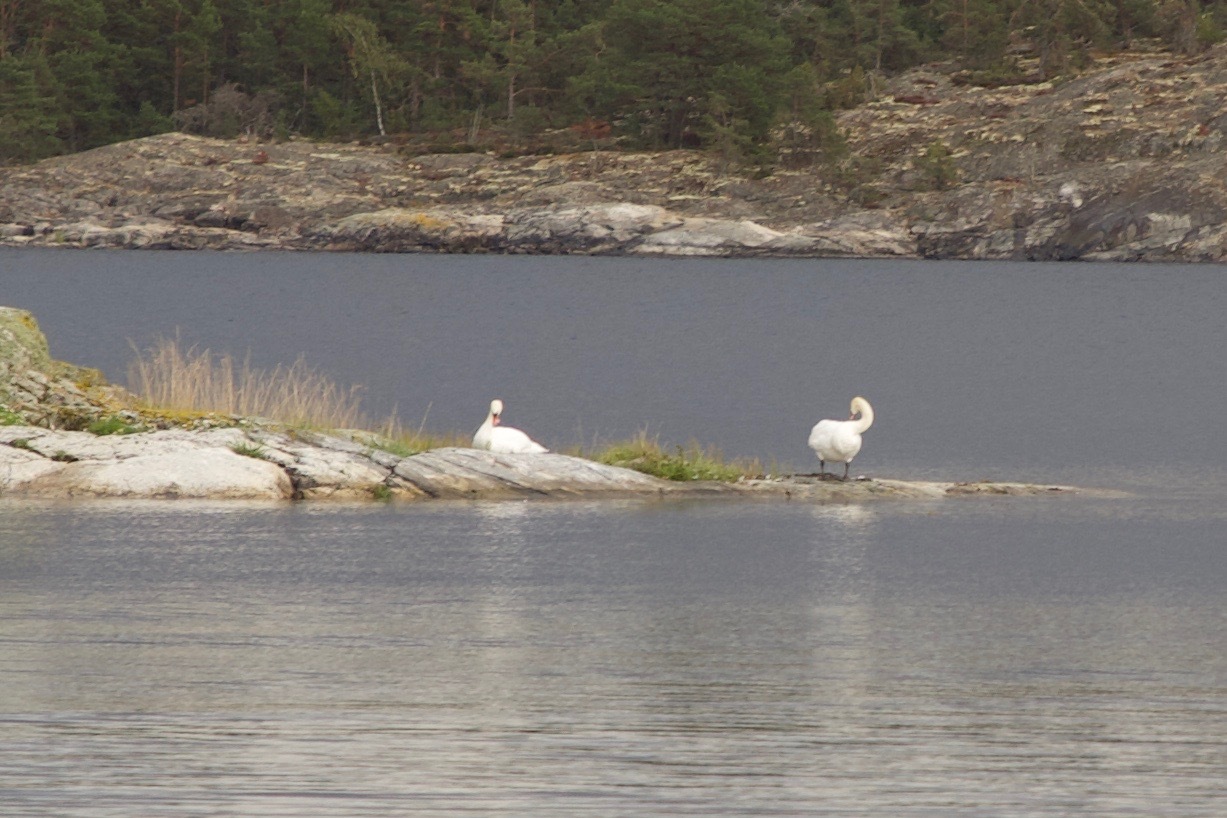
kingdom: Animalia
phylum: Chordata
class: Aves
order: Anseriformes
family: Anatidae
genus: Cygnus
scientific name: Cygnus olor
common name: Mute swan
